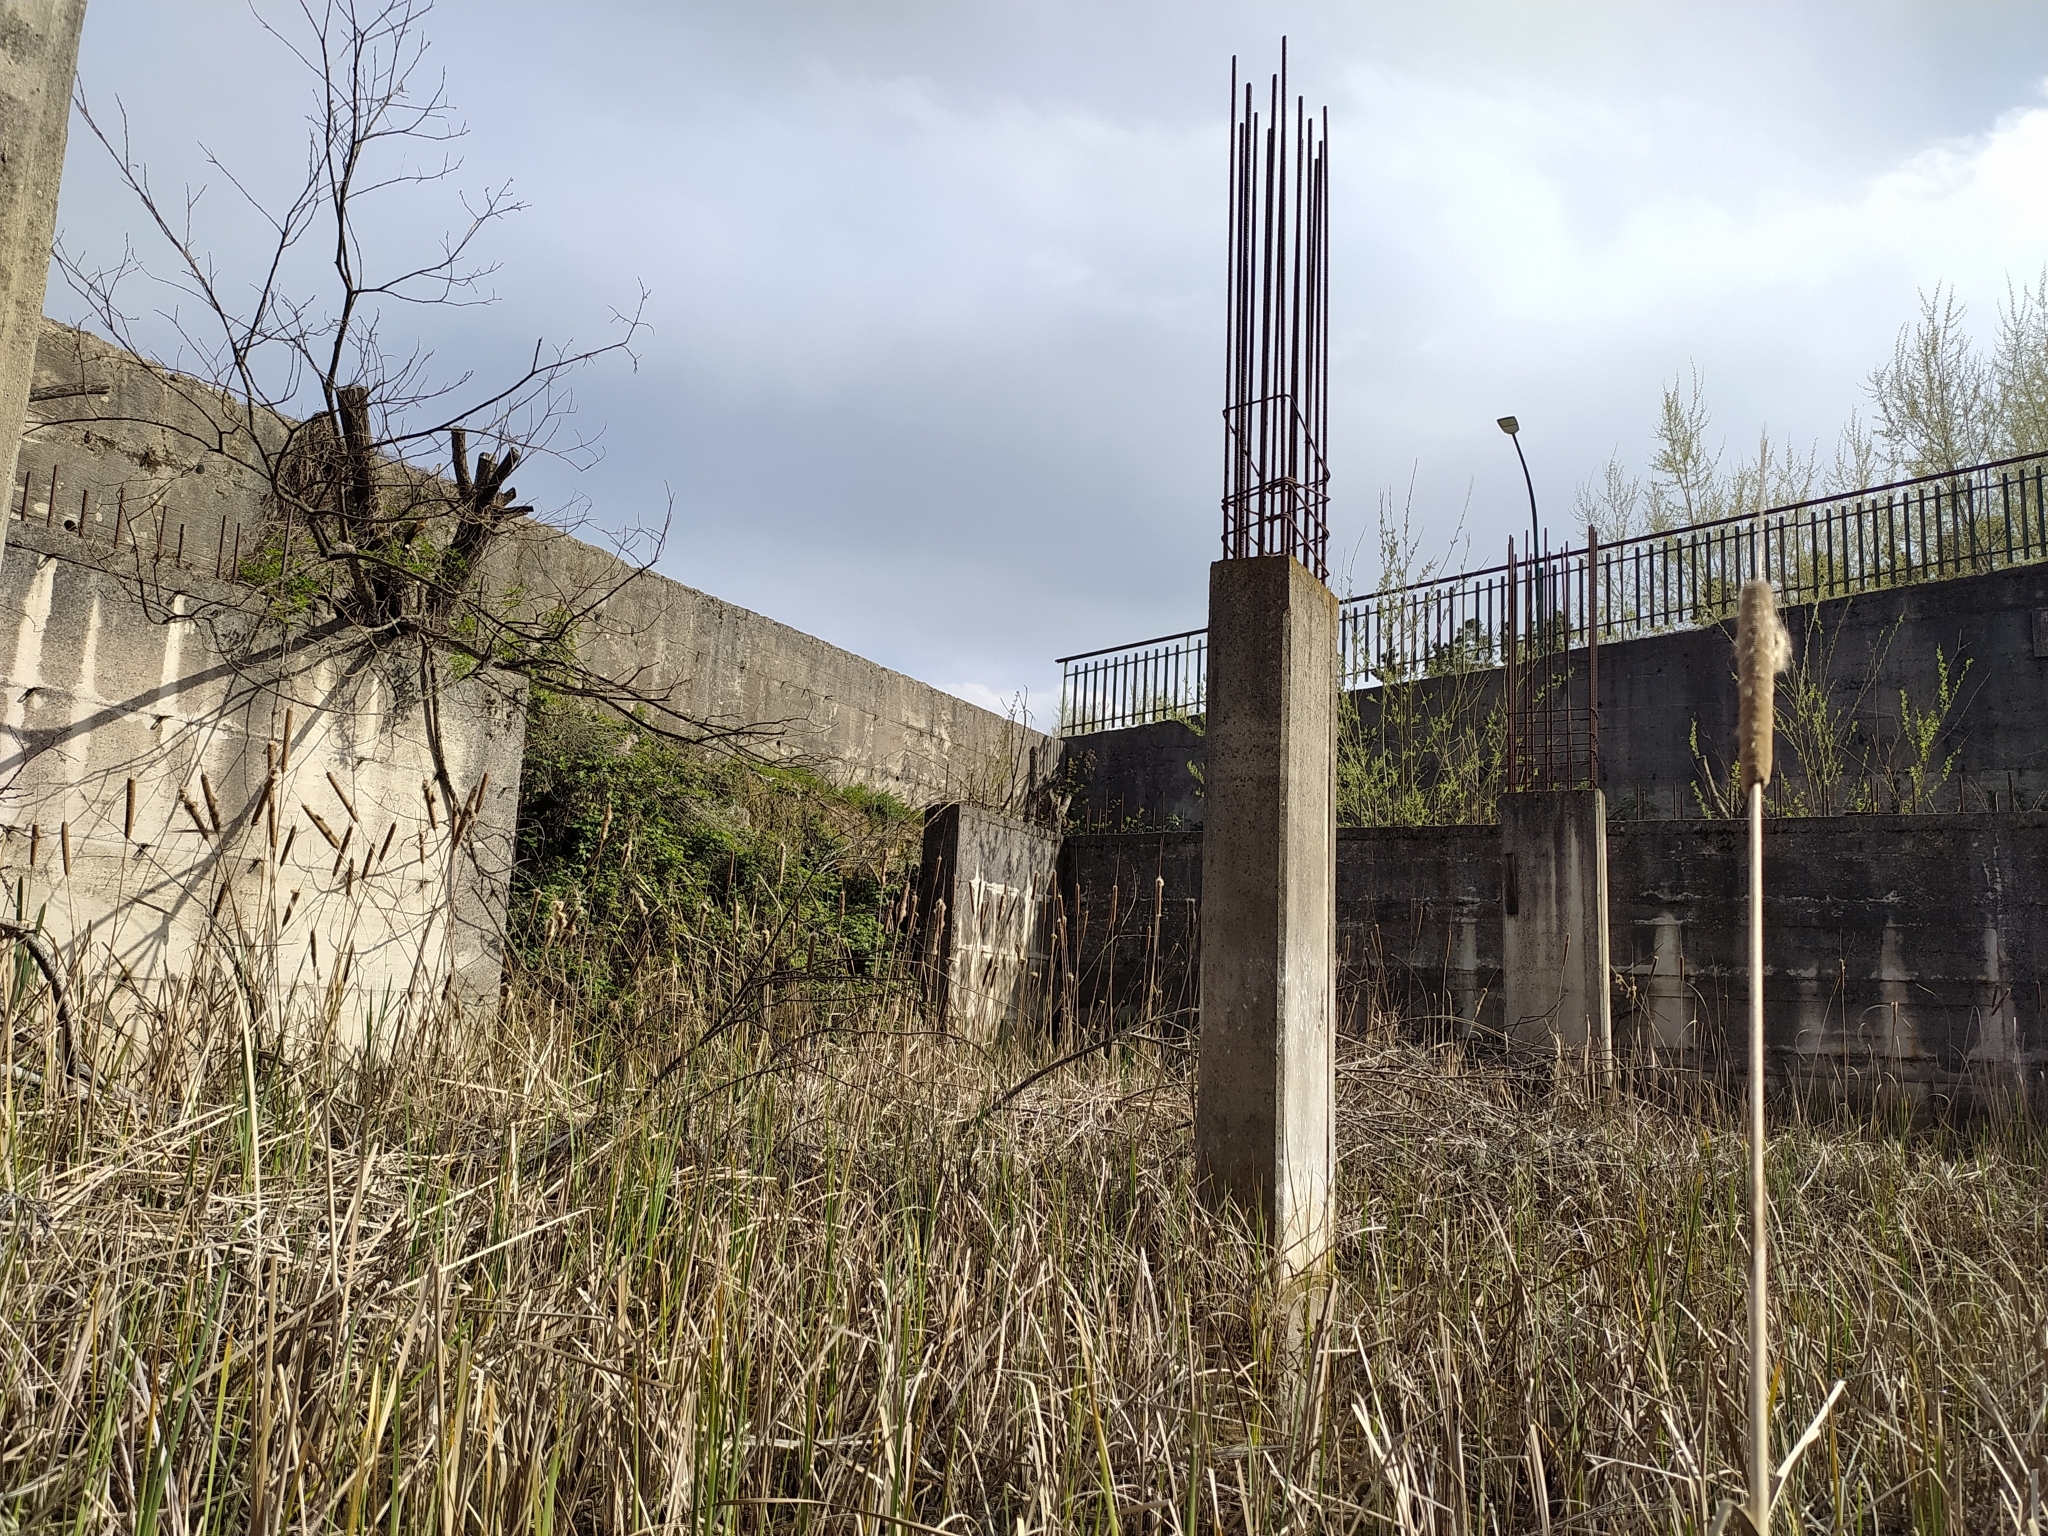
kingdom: Plantae
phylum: Tracheophyta
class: Liliopsida
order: Poales
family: Typhaceae
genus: Typha
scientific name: Typha
